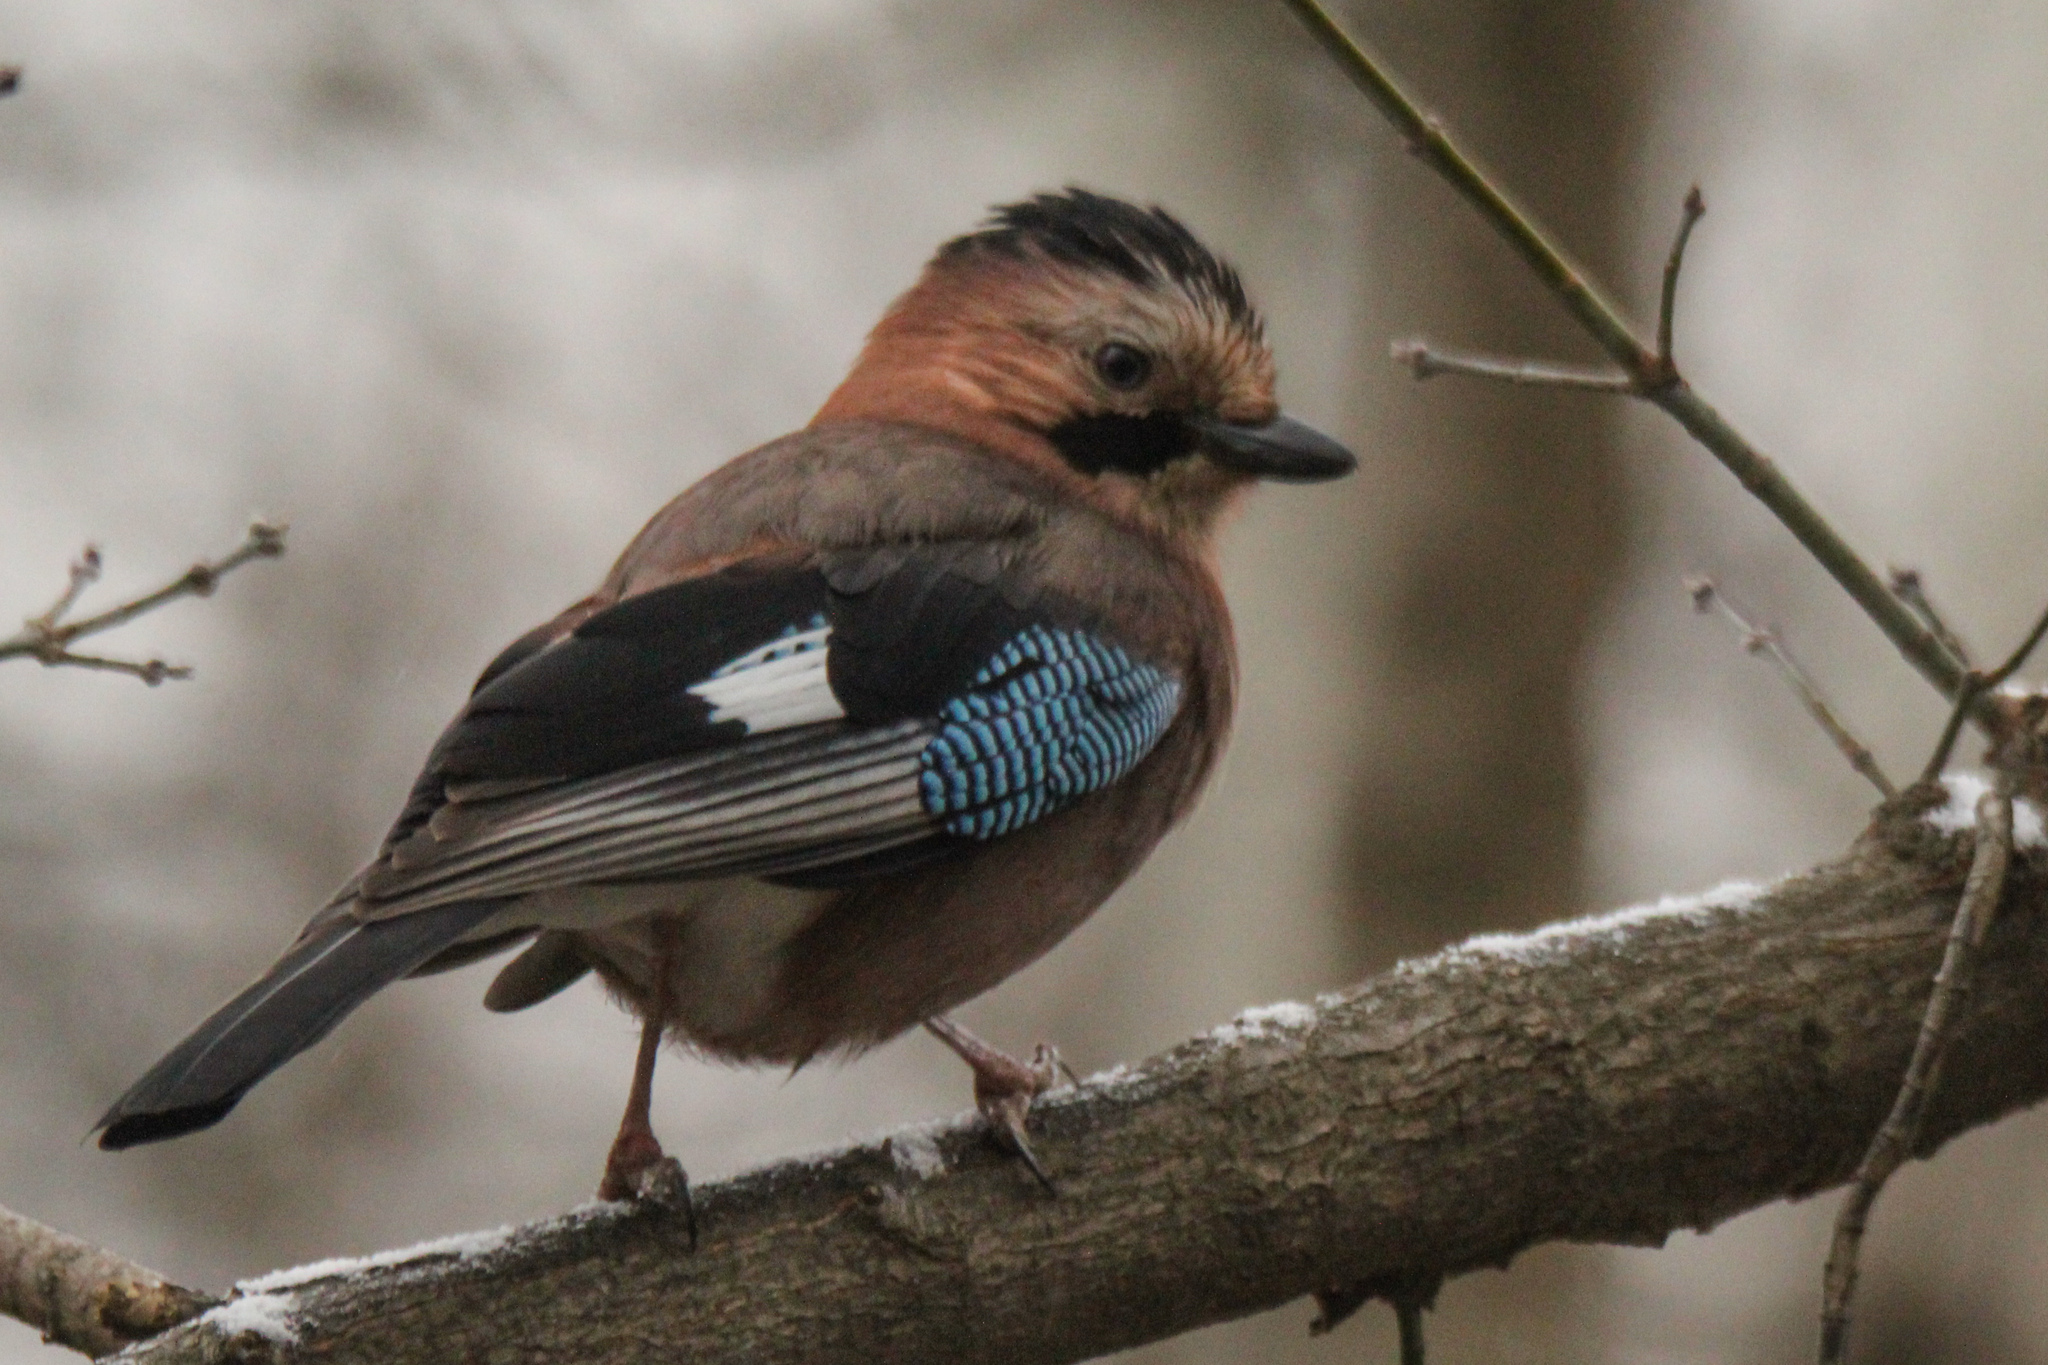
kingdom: Animalia
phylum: Chordata
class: Aves
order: Passeriformes
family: Corvidae
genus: Garrulus
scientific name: Garrulus glandarius
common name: Eurasian jay
